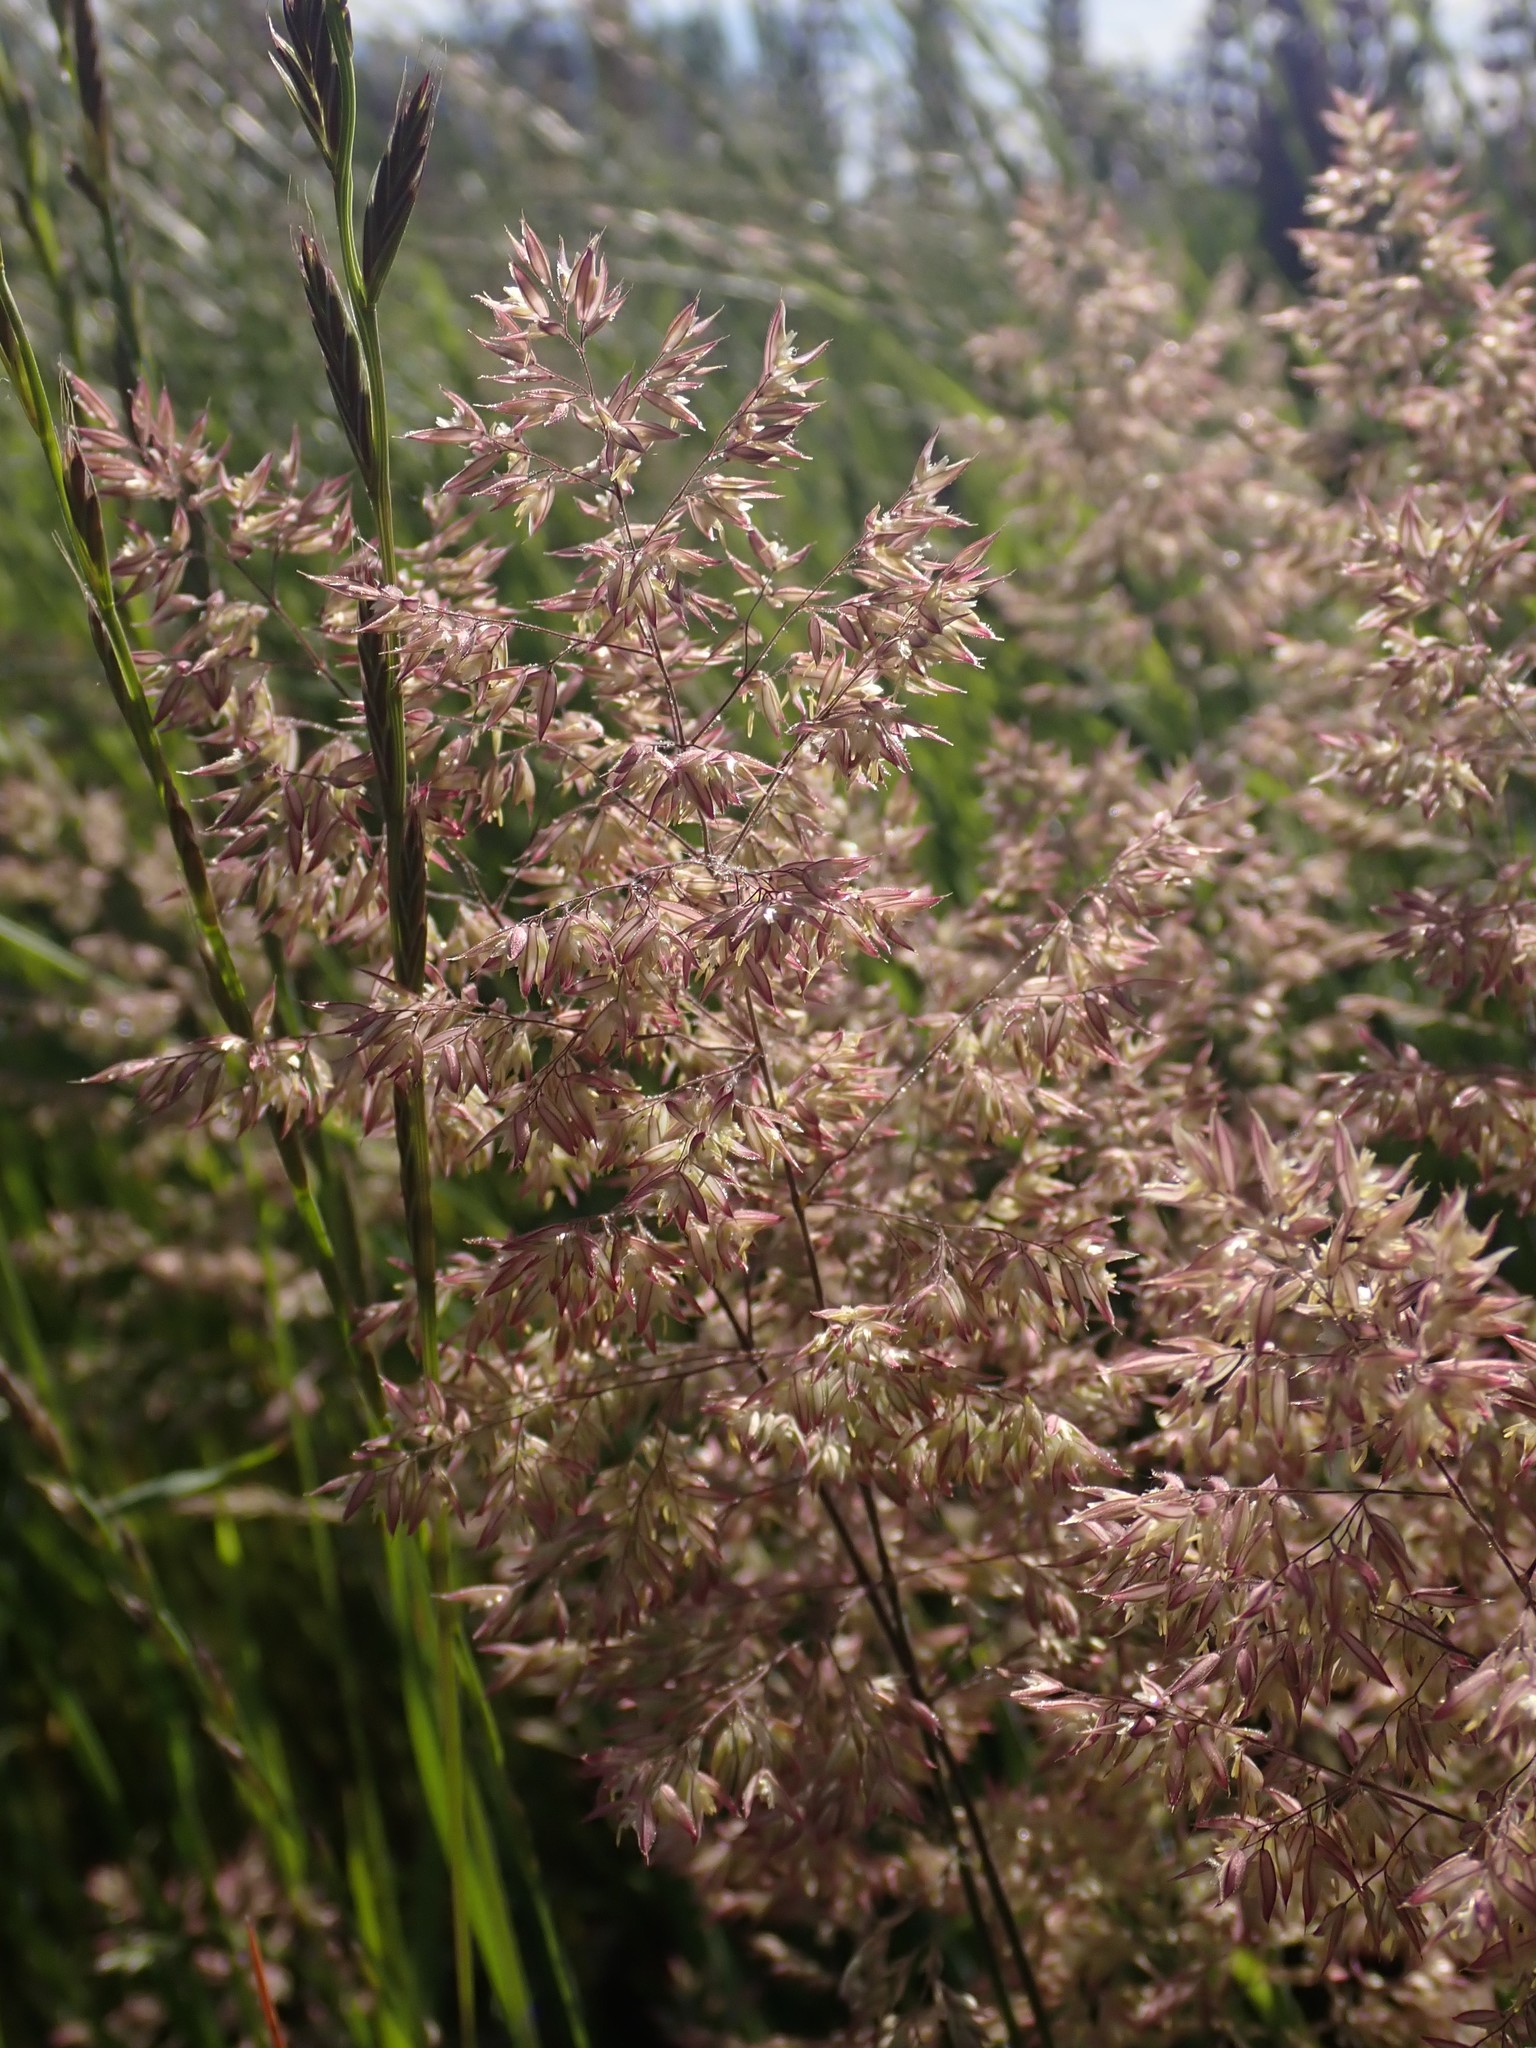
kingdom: Plantae
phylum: Tracheophyta
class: Liliopsida
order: Poales
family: Poaceae
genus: Holcus
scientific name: Holcus lanatus
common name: Yorkshire-fog
